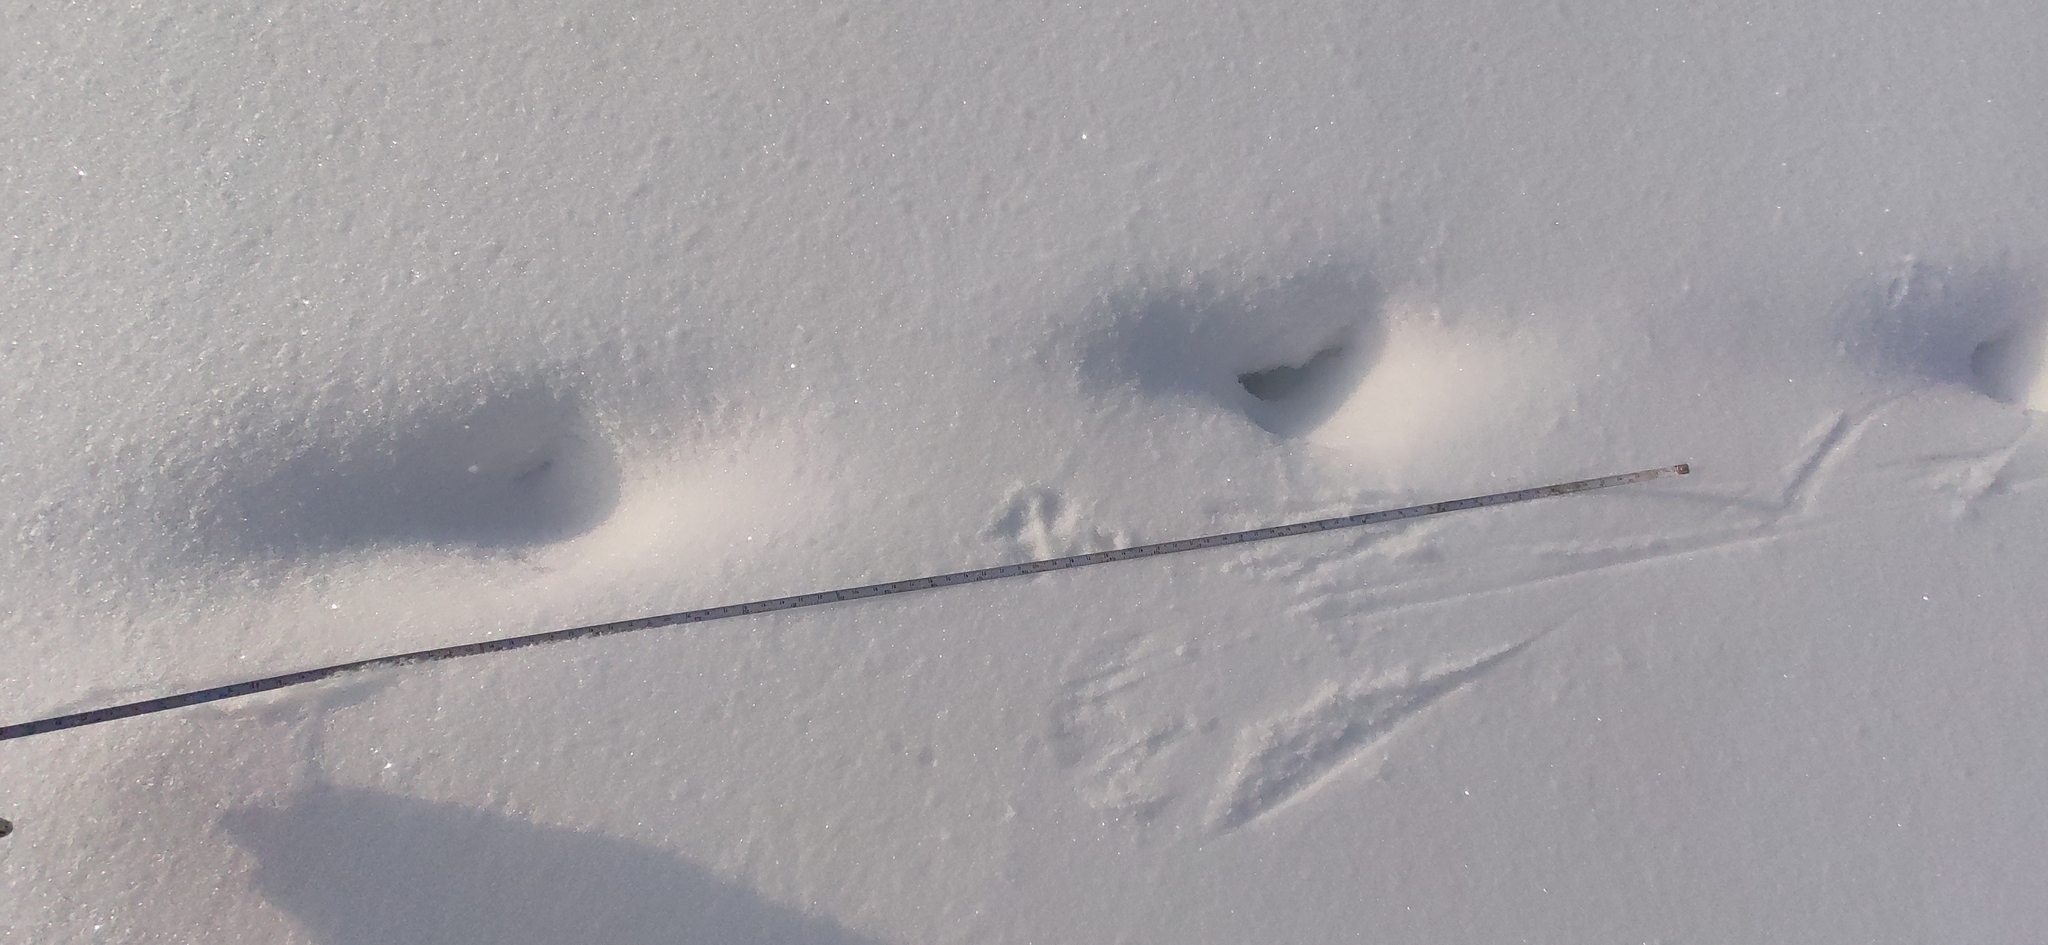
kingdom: Animalia
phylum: Chordata
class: Mammalia
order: Carnivora
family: Canidae
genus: Vulpes
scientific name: Vulpes vulpes
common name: Red fox
